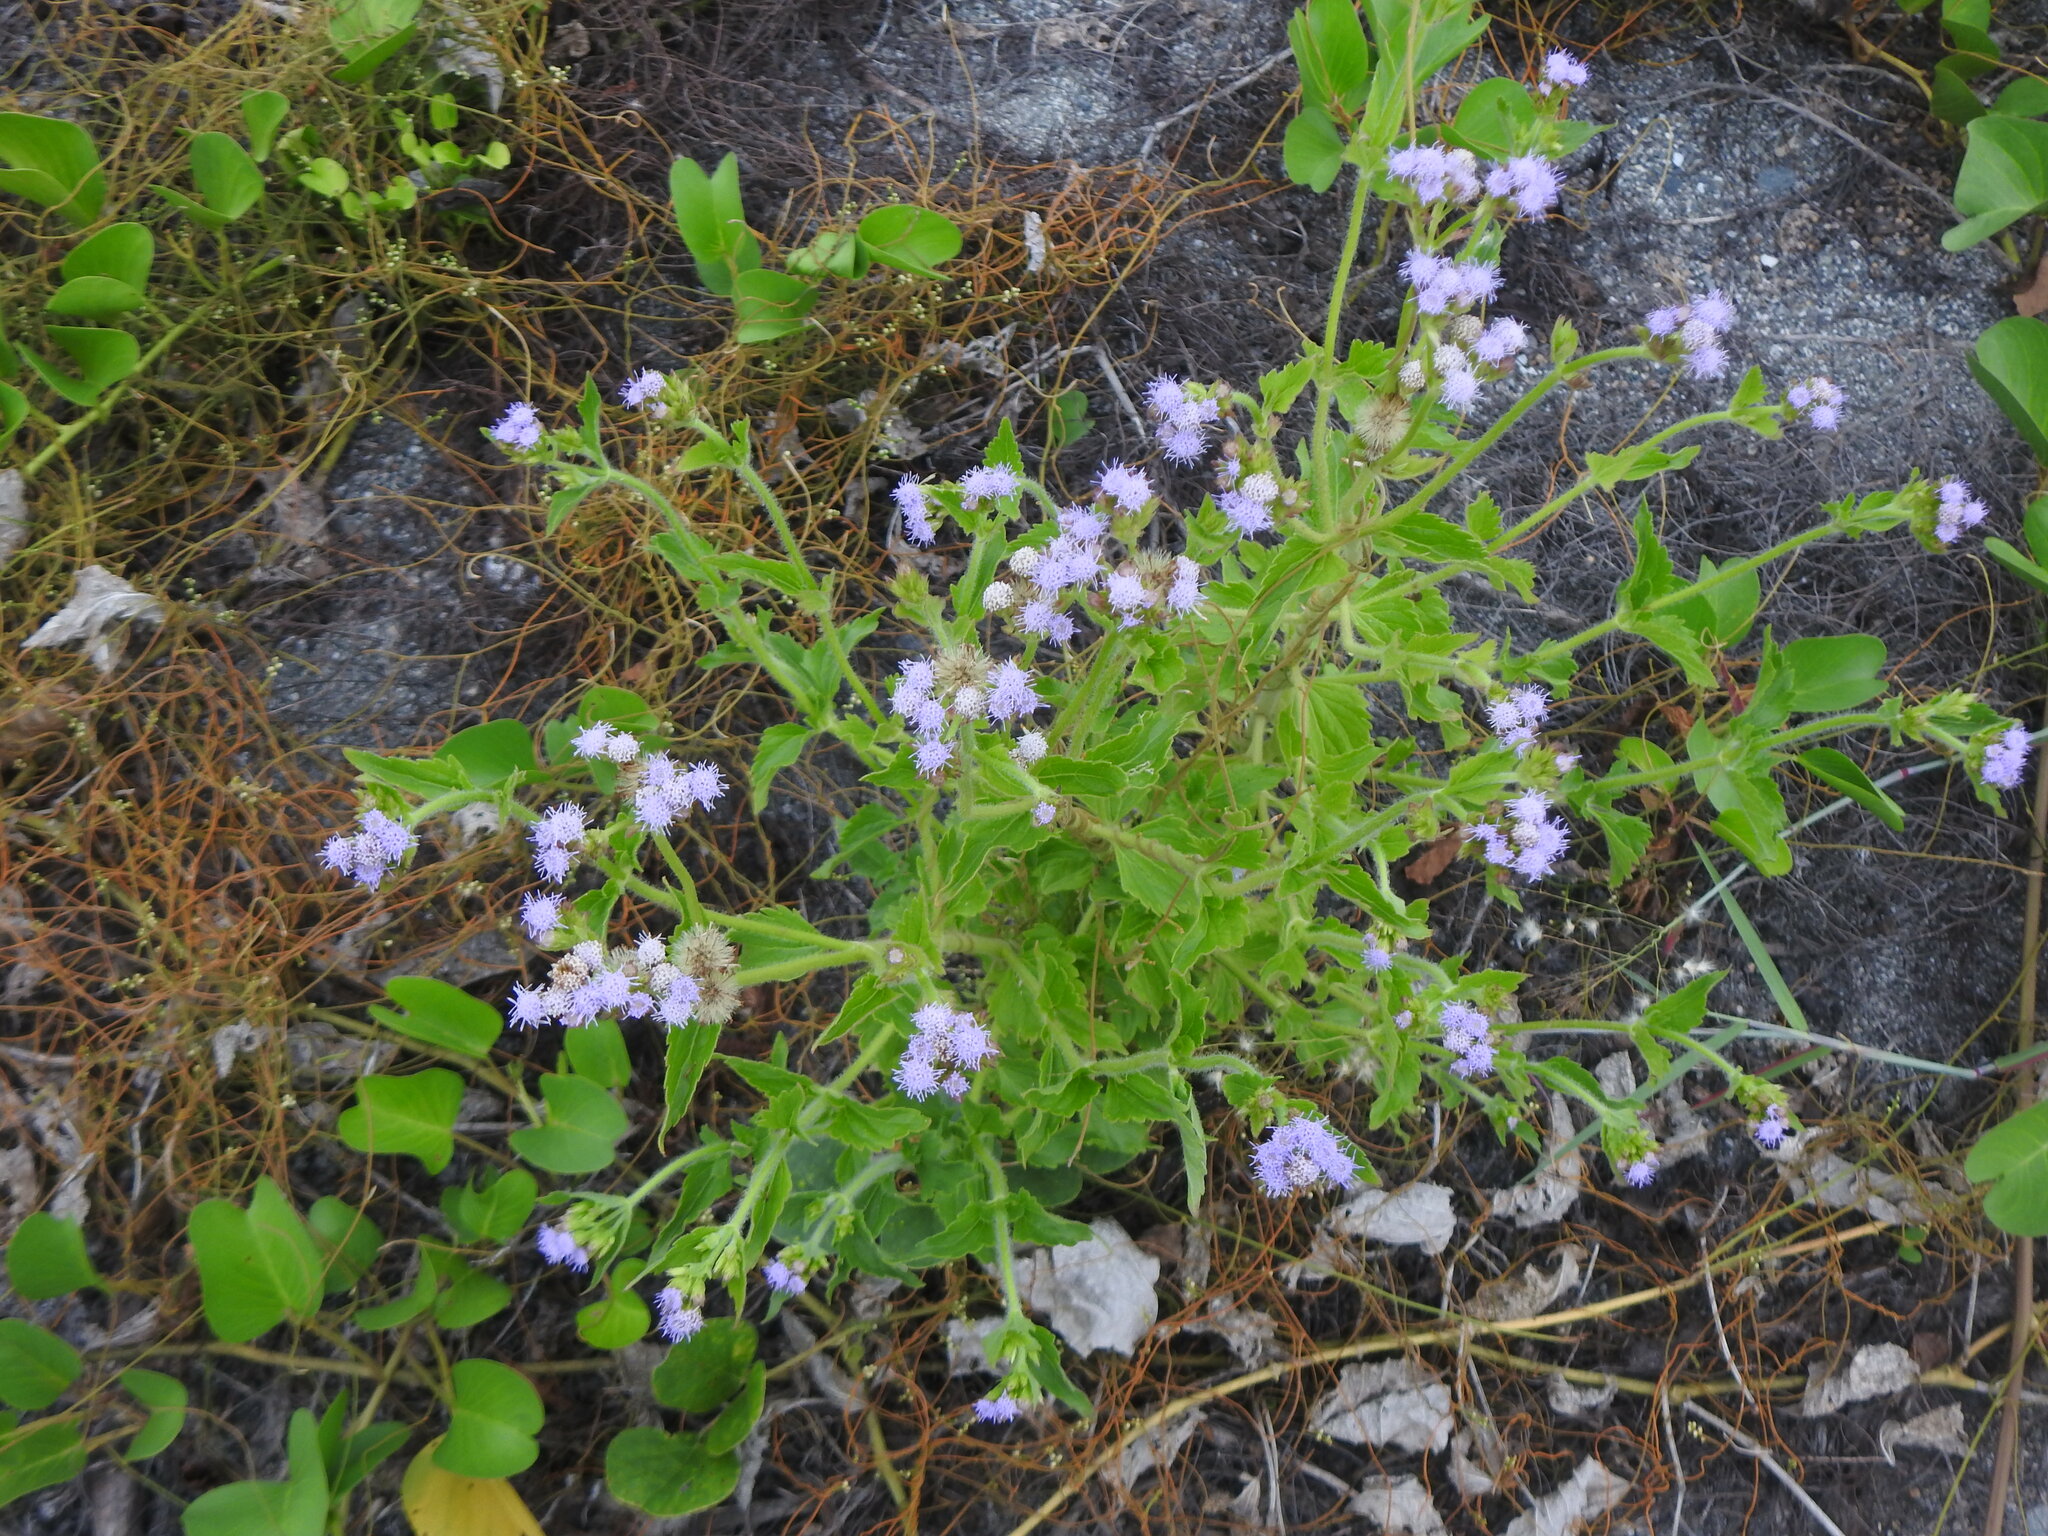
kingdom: Plantae
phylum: Tracheophyta
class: Magnoliopsida
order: Asterales
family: Asteraceae
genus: Praxelis
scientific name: Praxelis clematidea
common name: Praxelis
